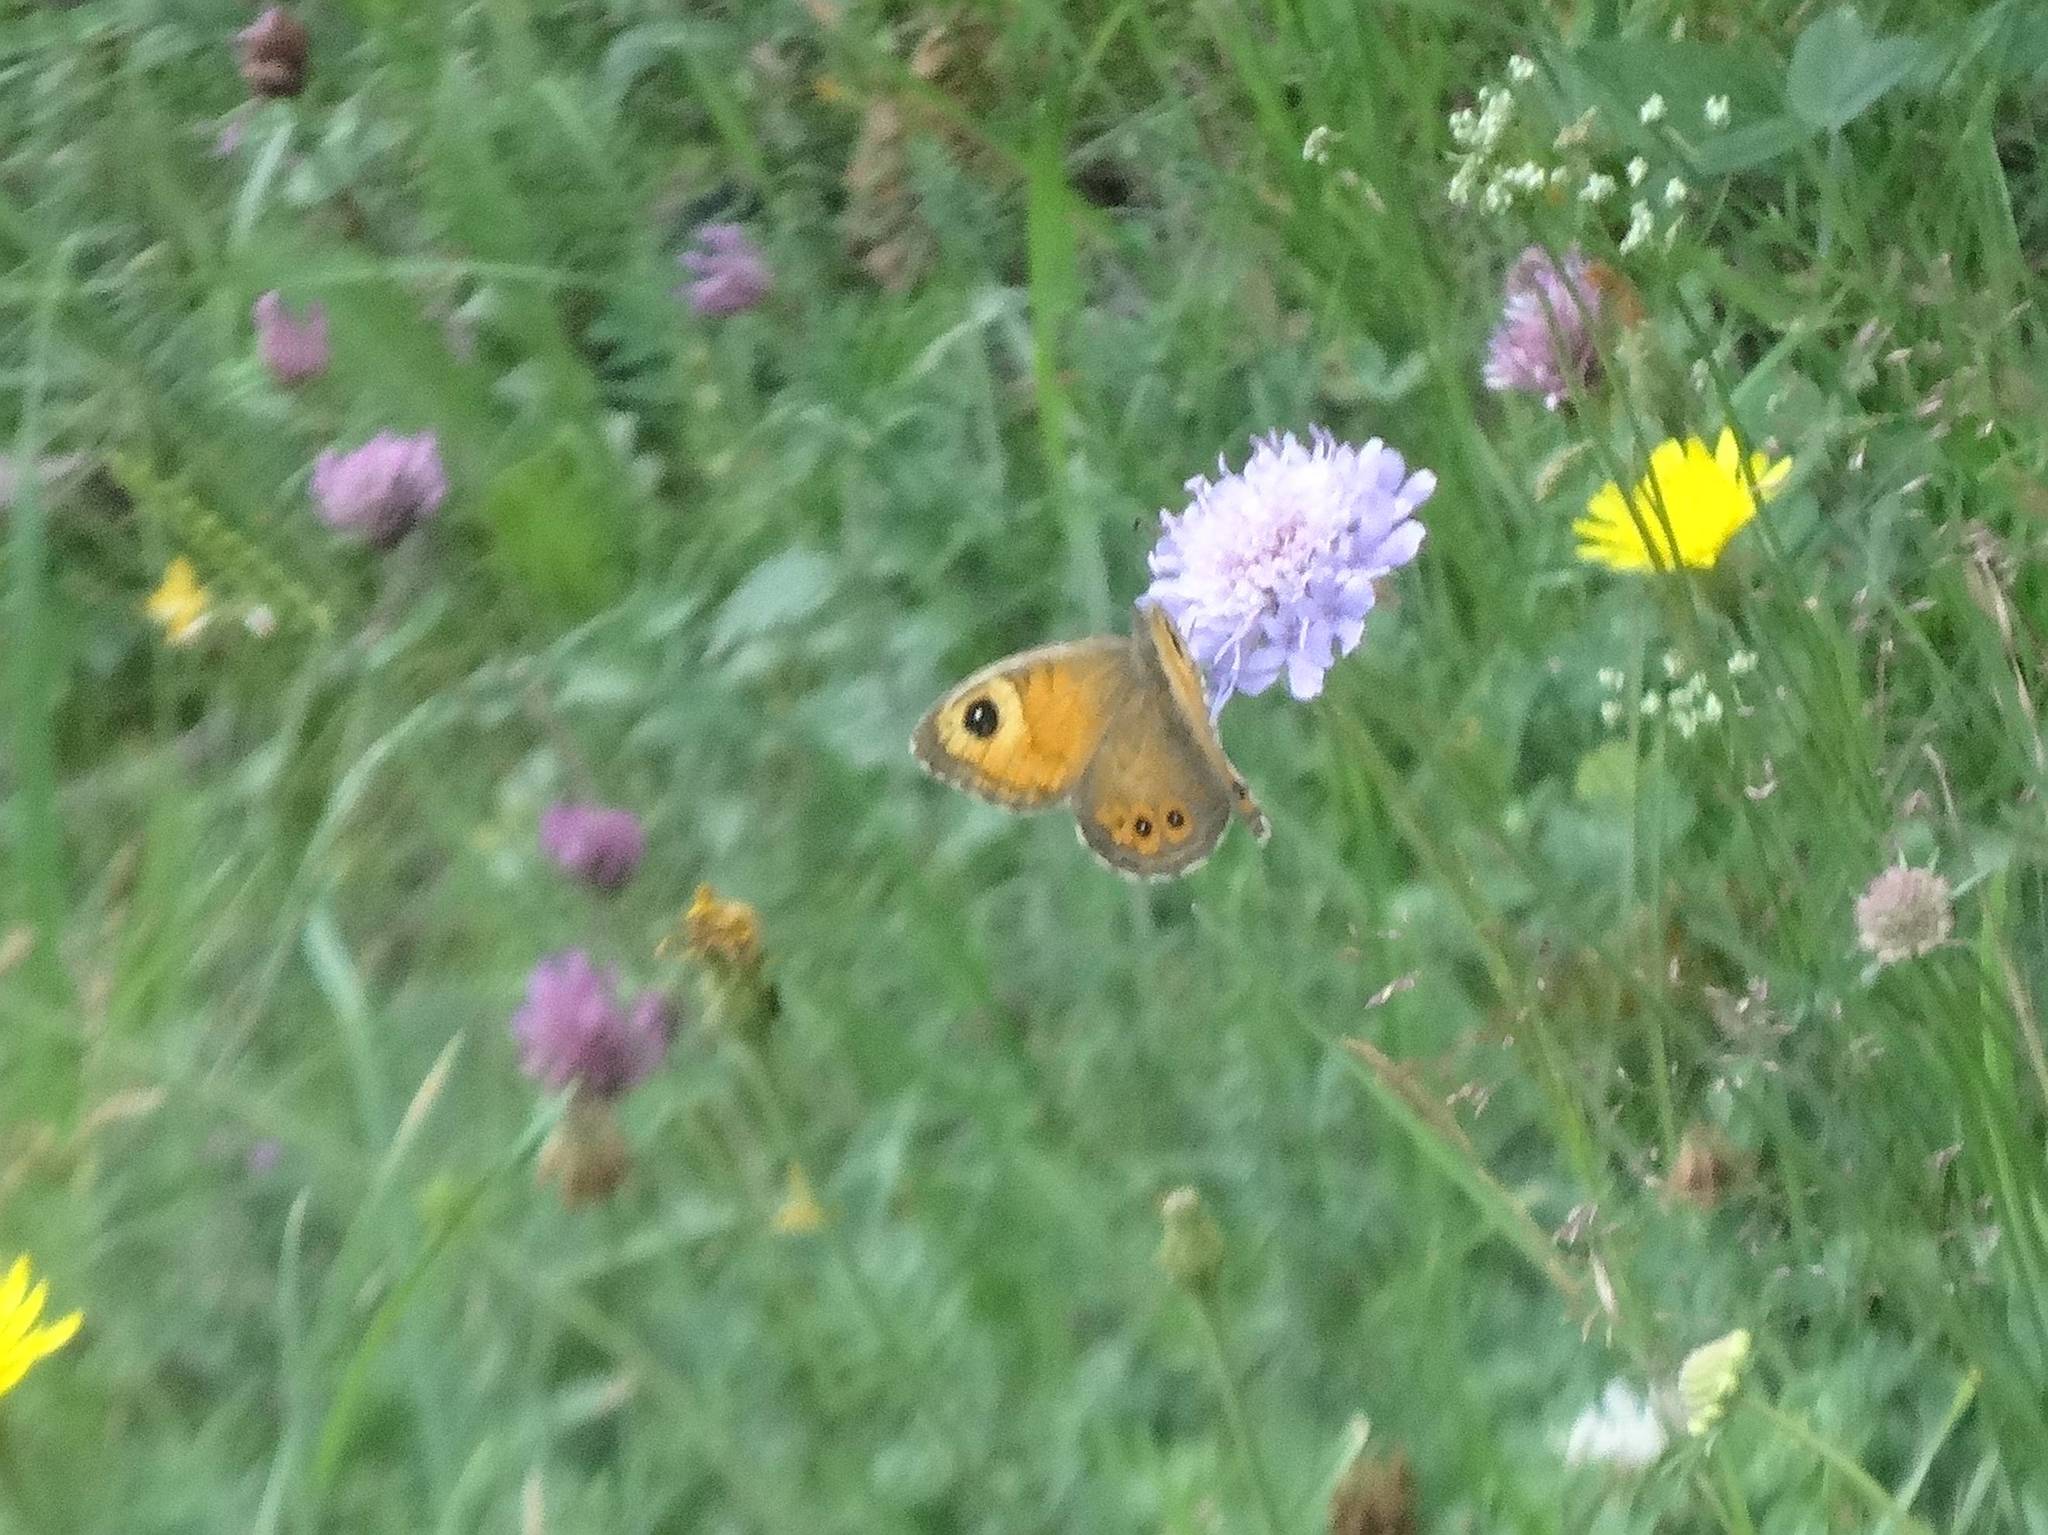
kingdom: Animalia
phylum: Arthropoda
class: Insecta
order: Lepidoptera
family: Nymphalidae
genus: Pararge
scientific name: Pararge Lasiommata maera
